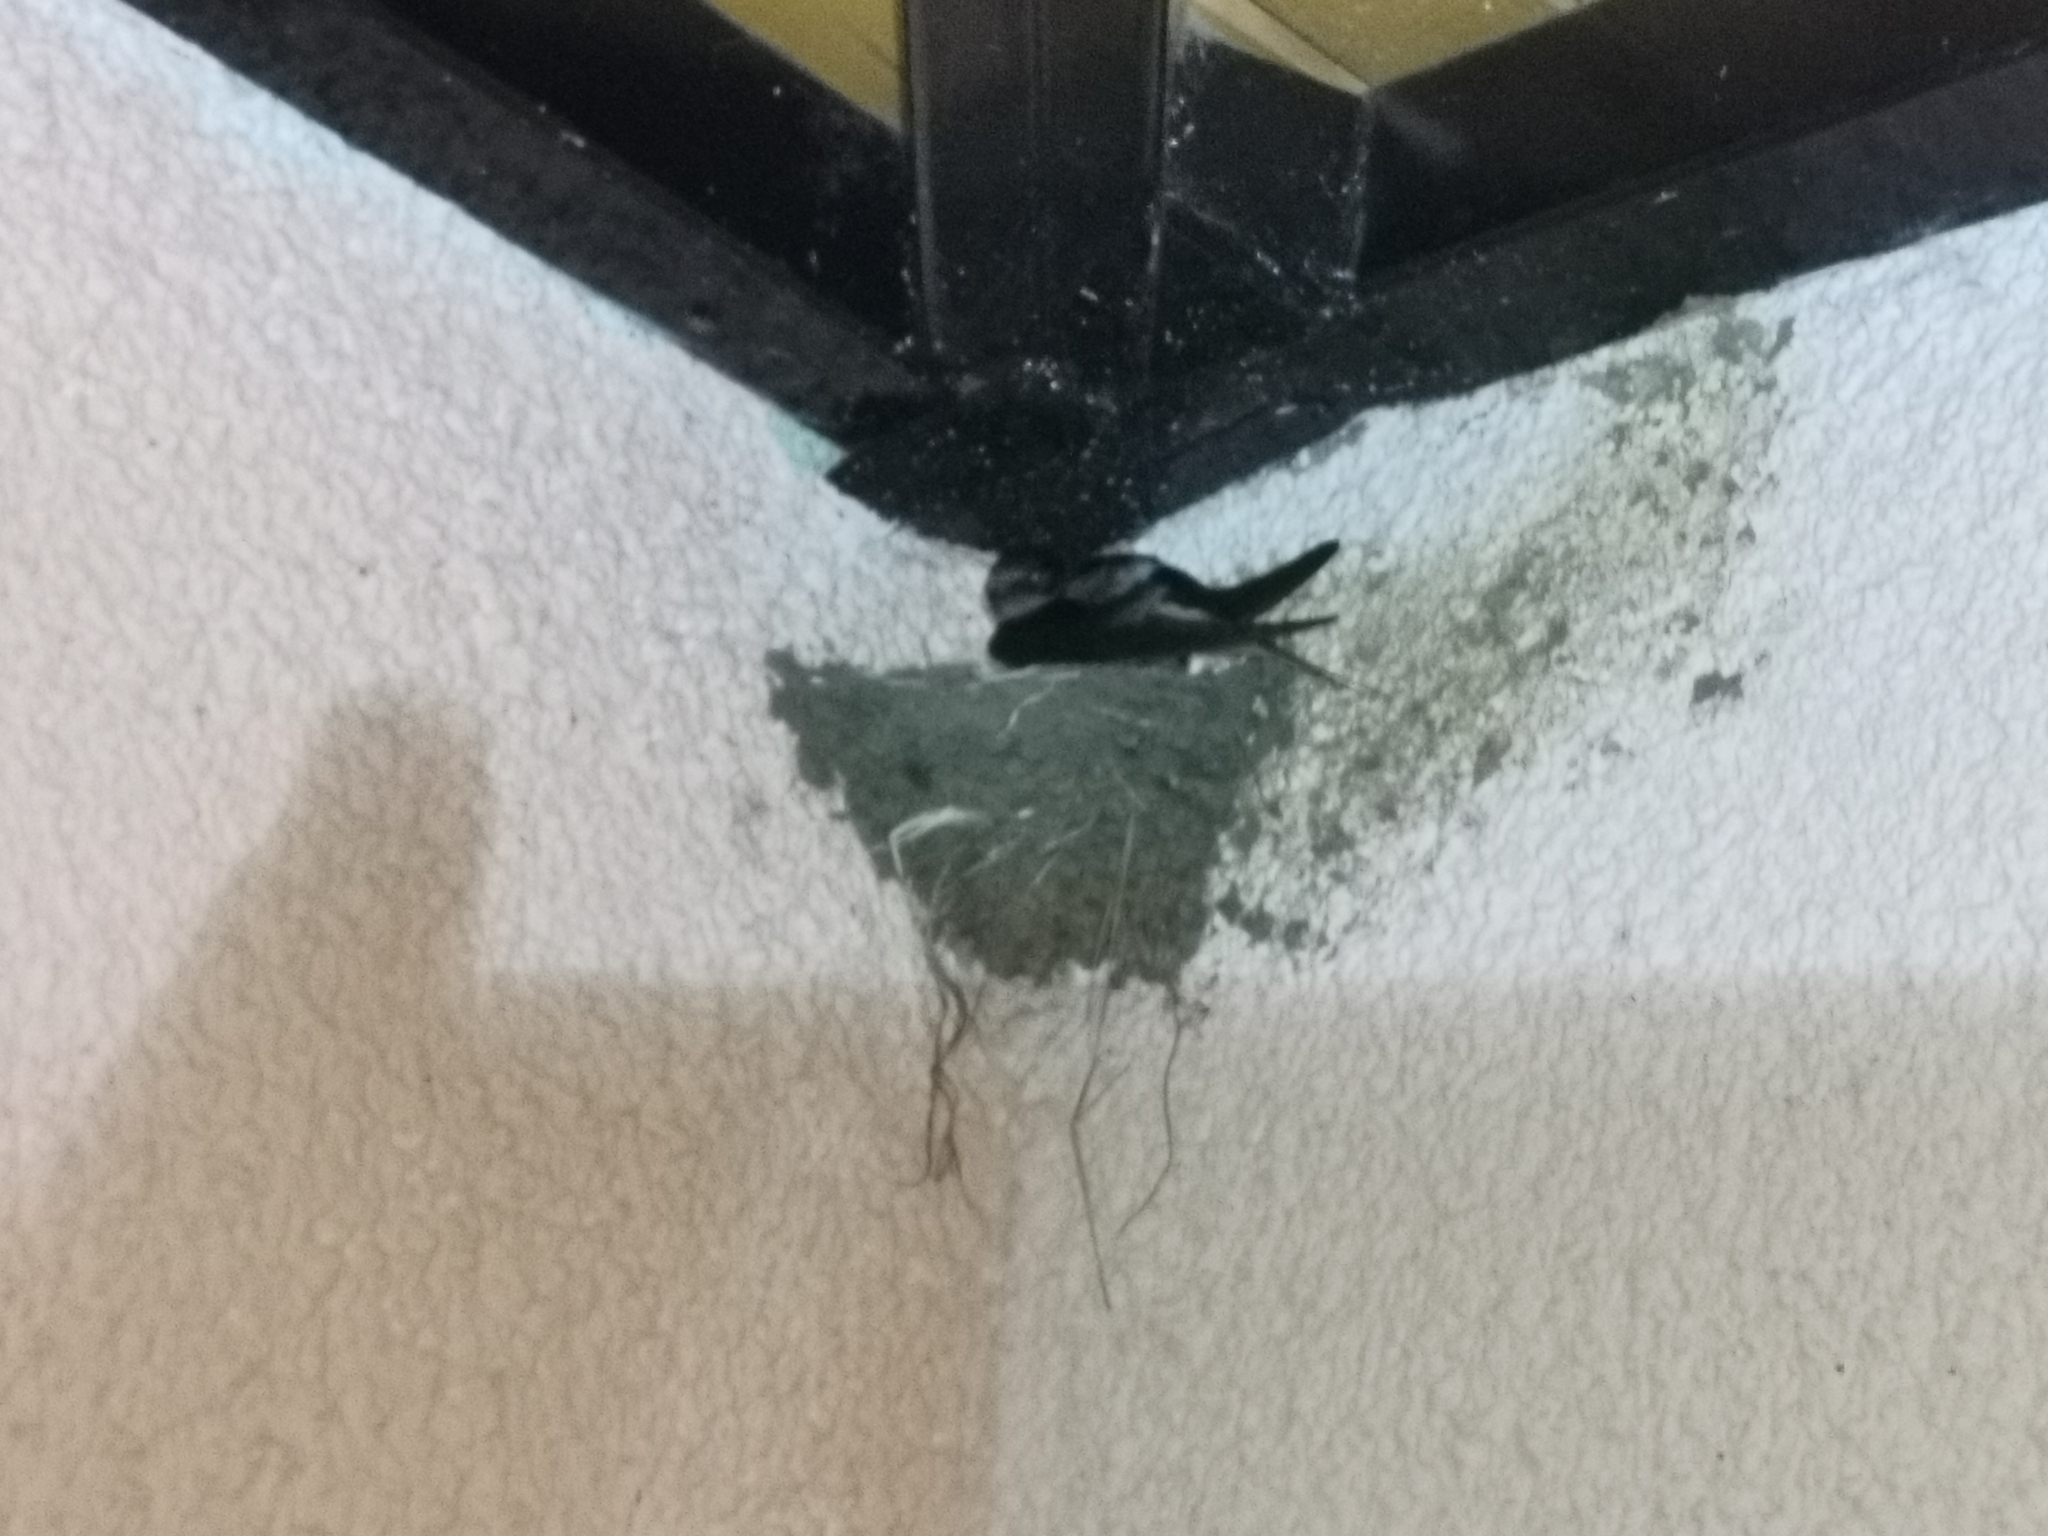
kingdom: Animalia
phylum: Chordata
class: Aves
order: Passeriformes
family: Hirundinidae
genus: Hirundo
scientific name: Hirundo rustica
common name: Barn swallow
